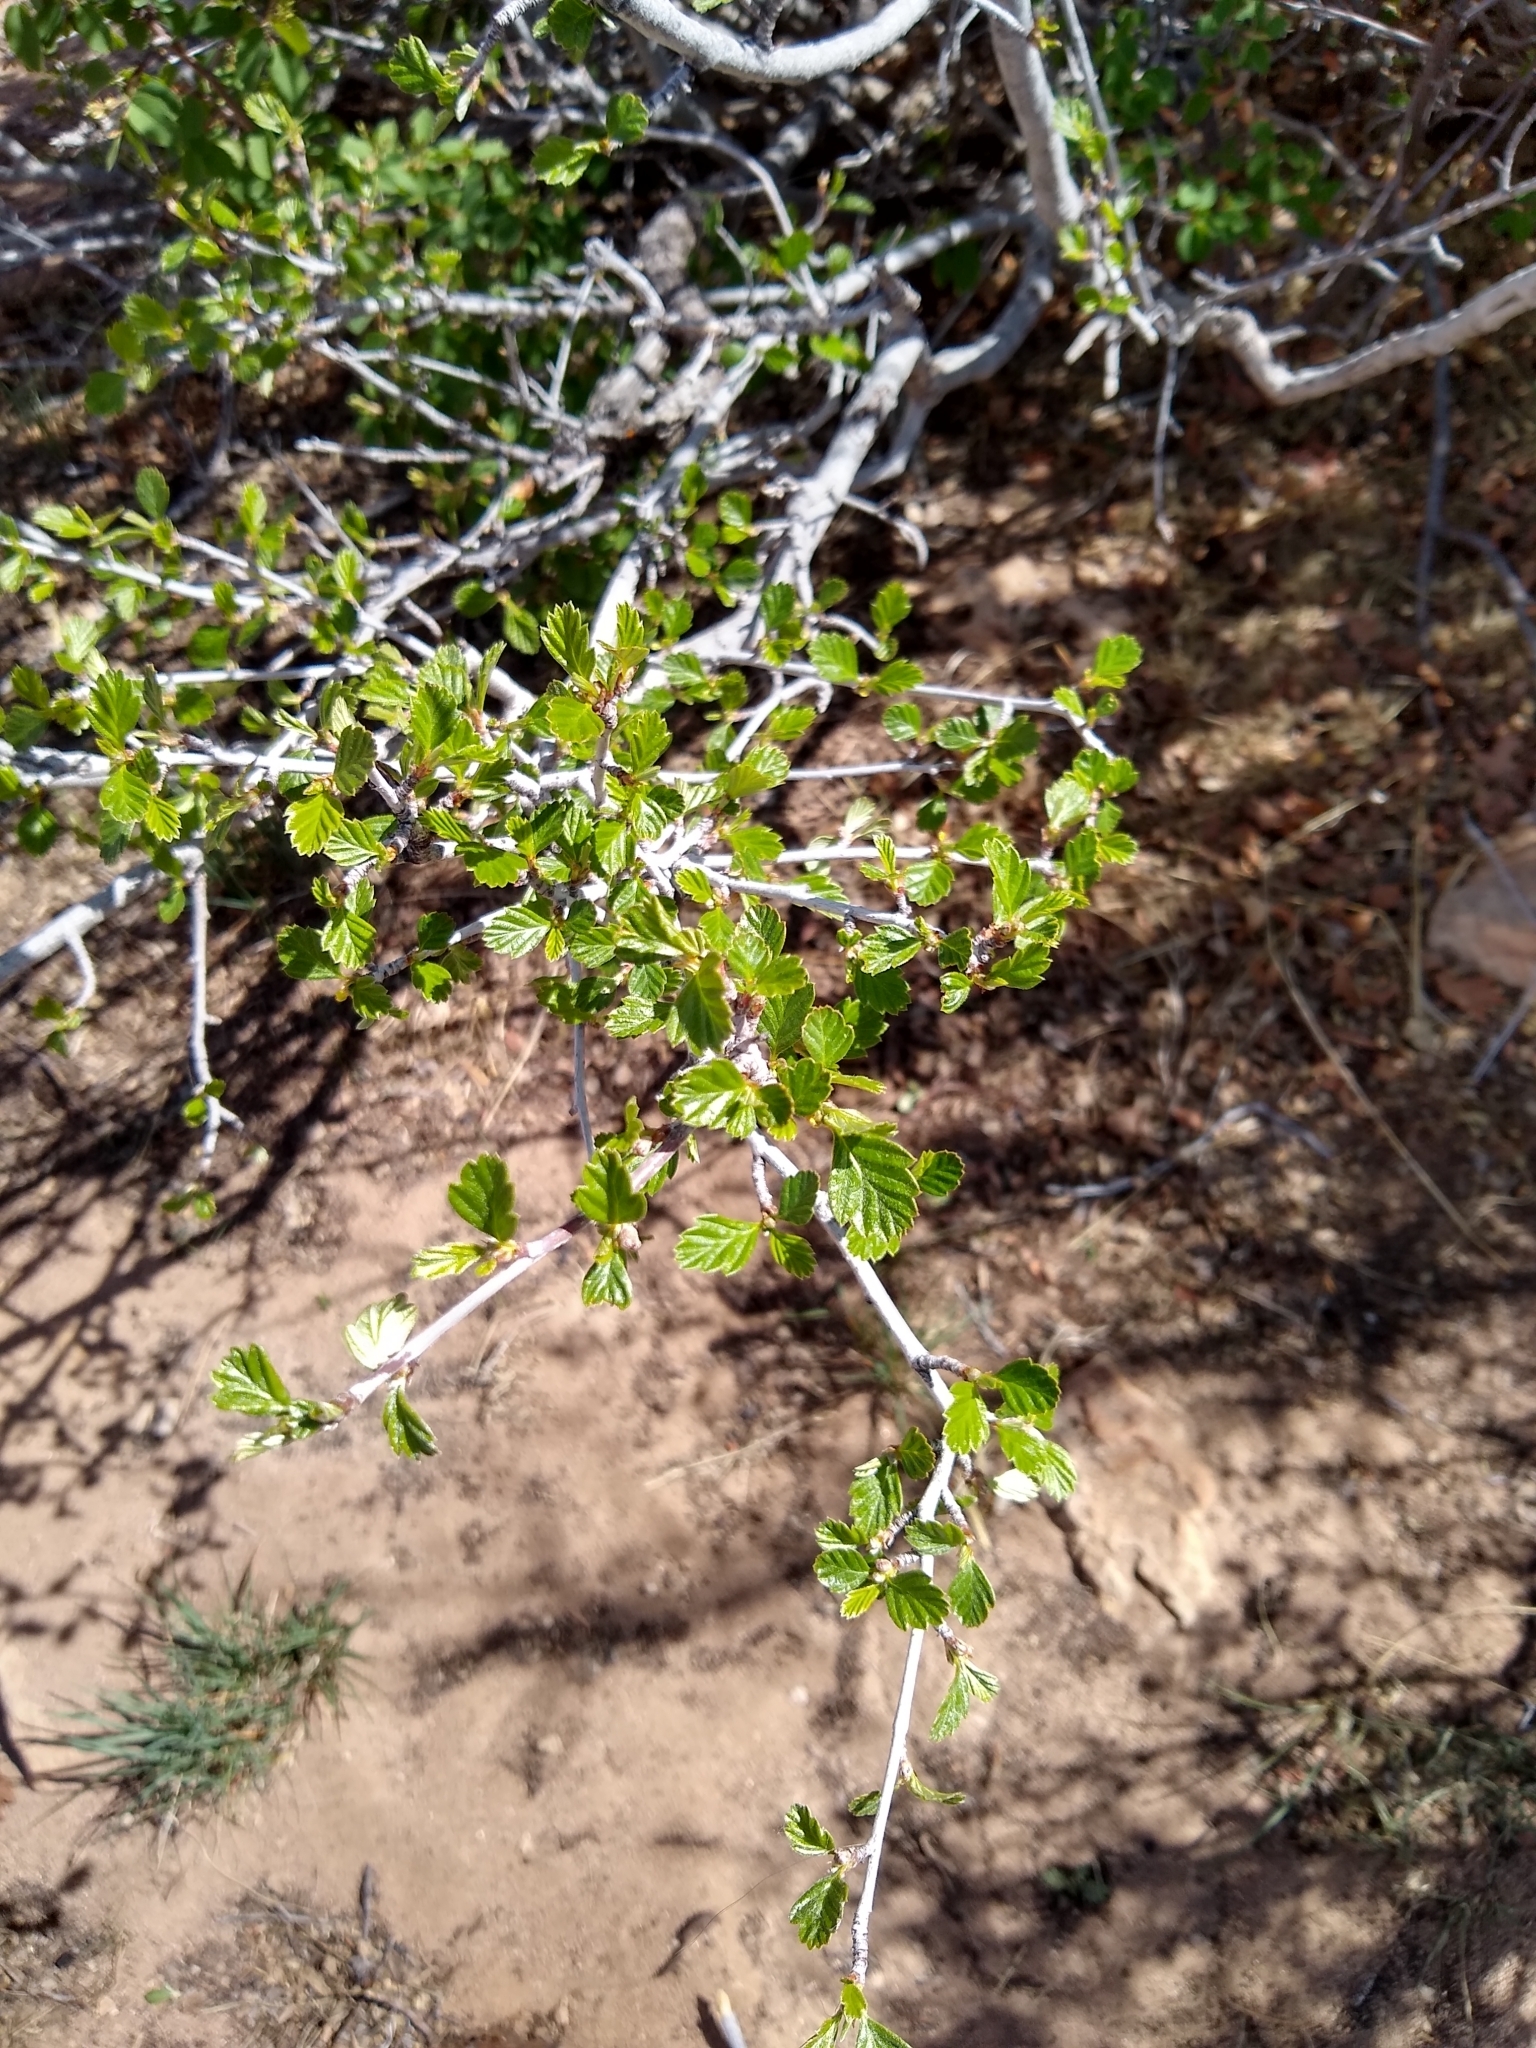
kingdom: Plantae
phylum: Tracheophyta
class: Magnoliopsida
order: Rosales
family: Rosaceae
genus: Cercocarpus
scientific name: Cercocarpus montanus
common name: Alder-leaf cercocarpus
